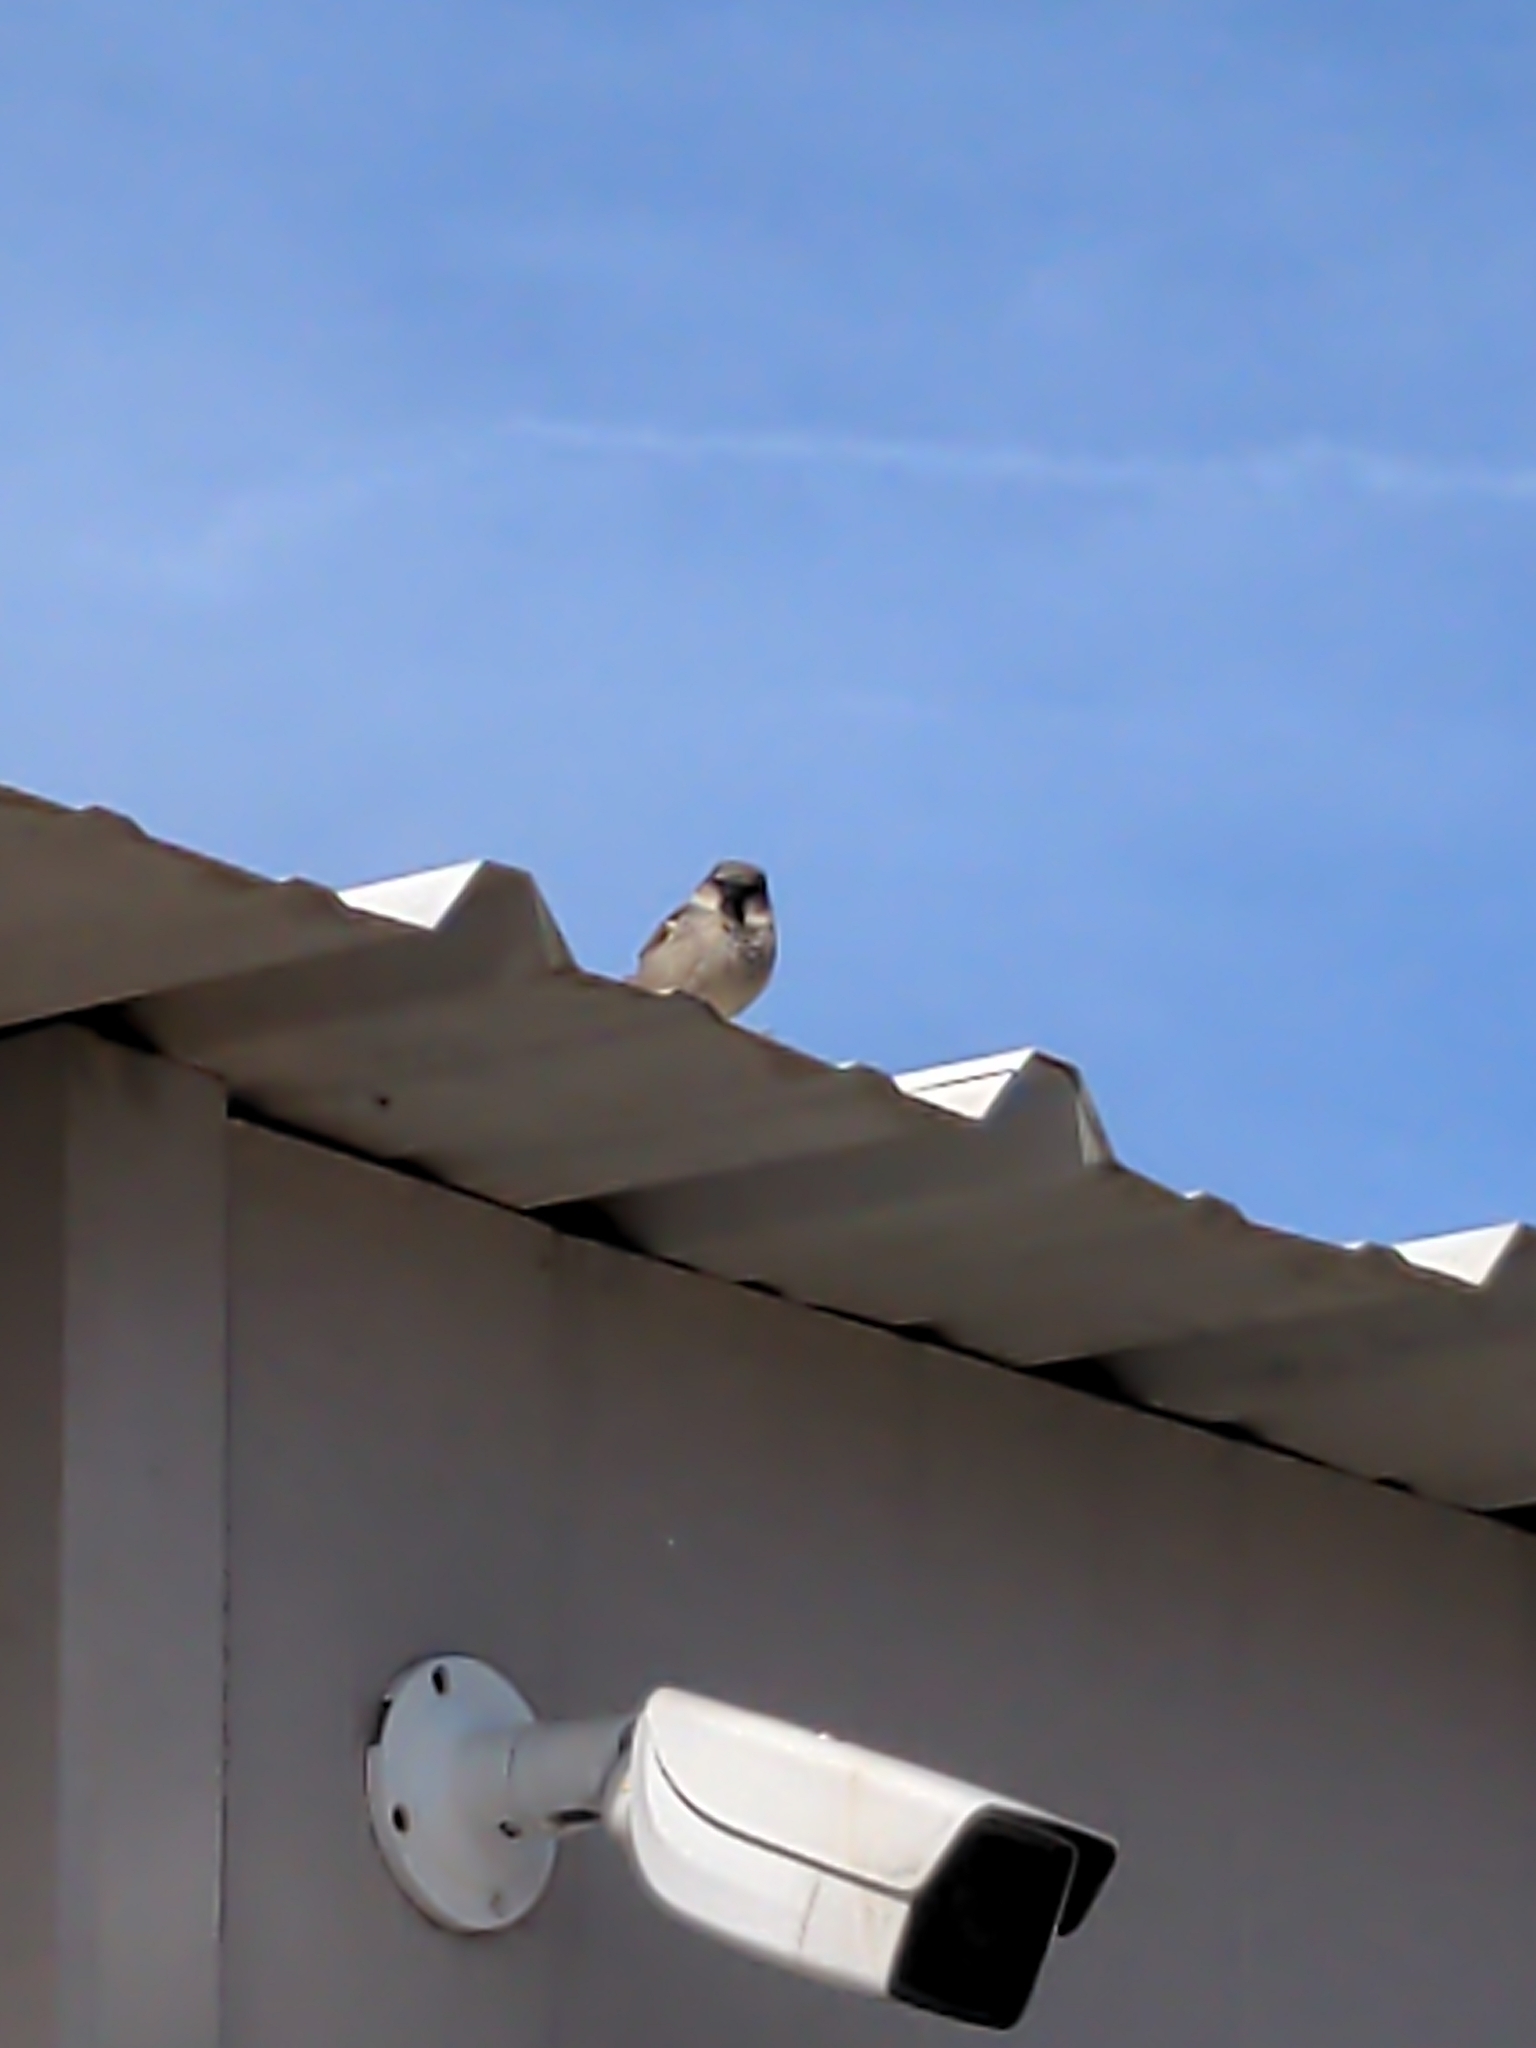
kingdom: Animalia
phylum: Chordata
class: Aves
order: Passeriformes
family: Passeridae
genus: Passer
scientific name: Passer domesticus
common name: House sparrow
